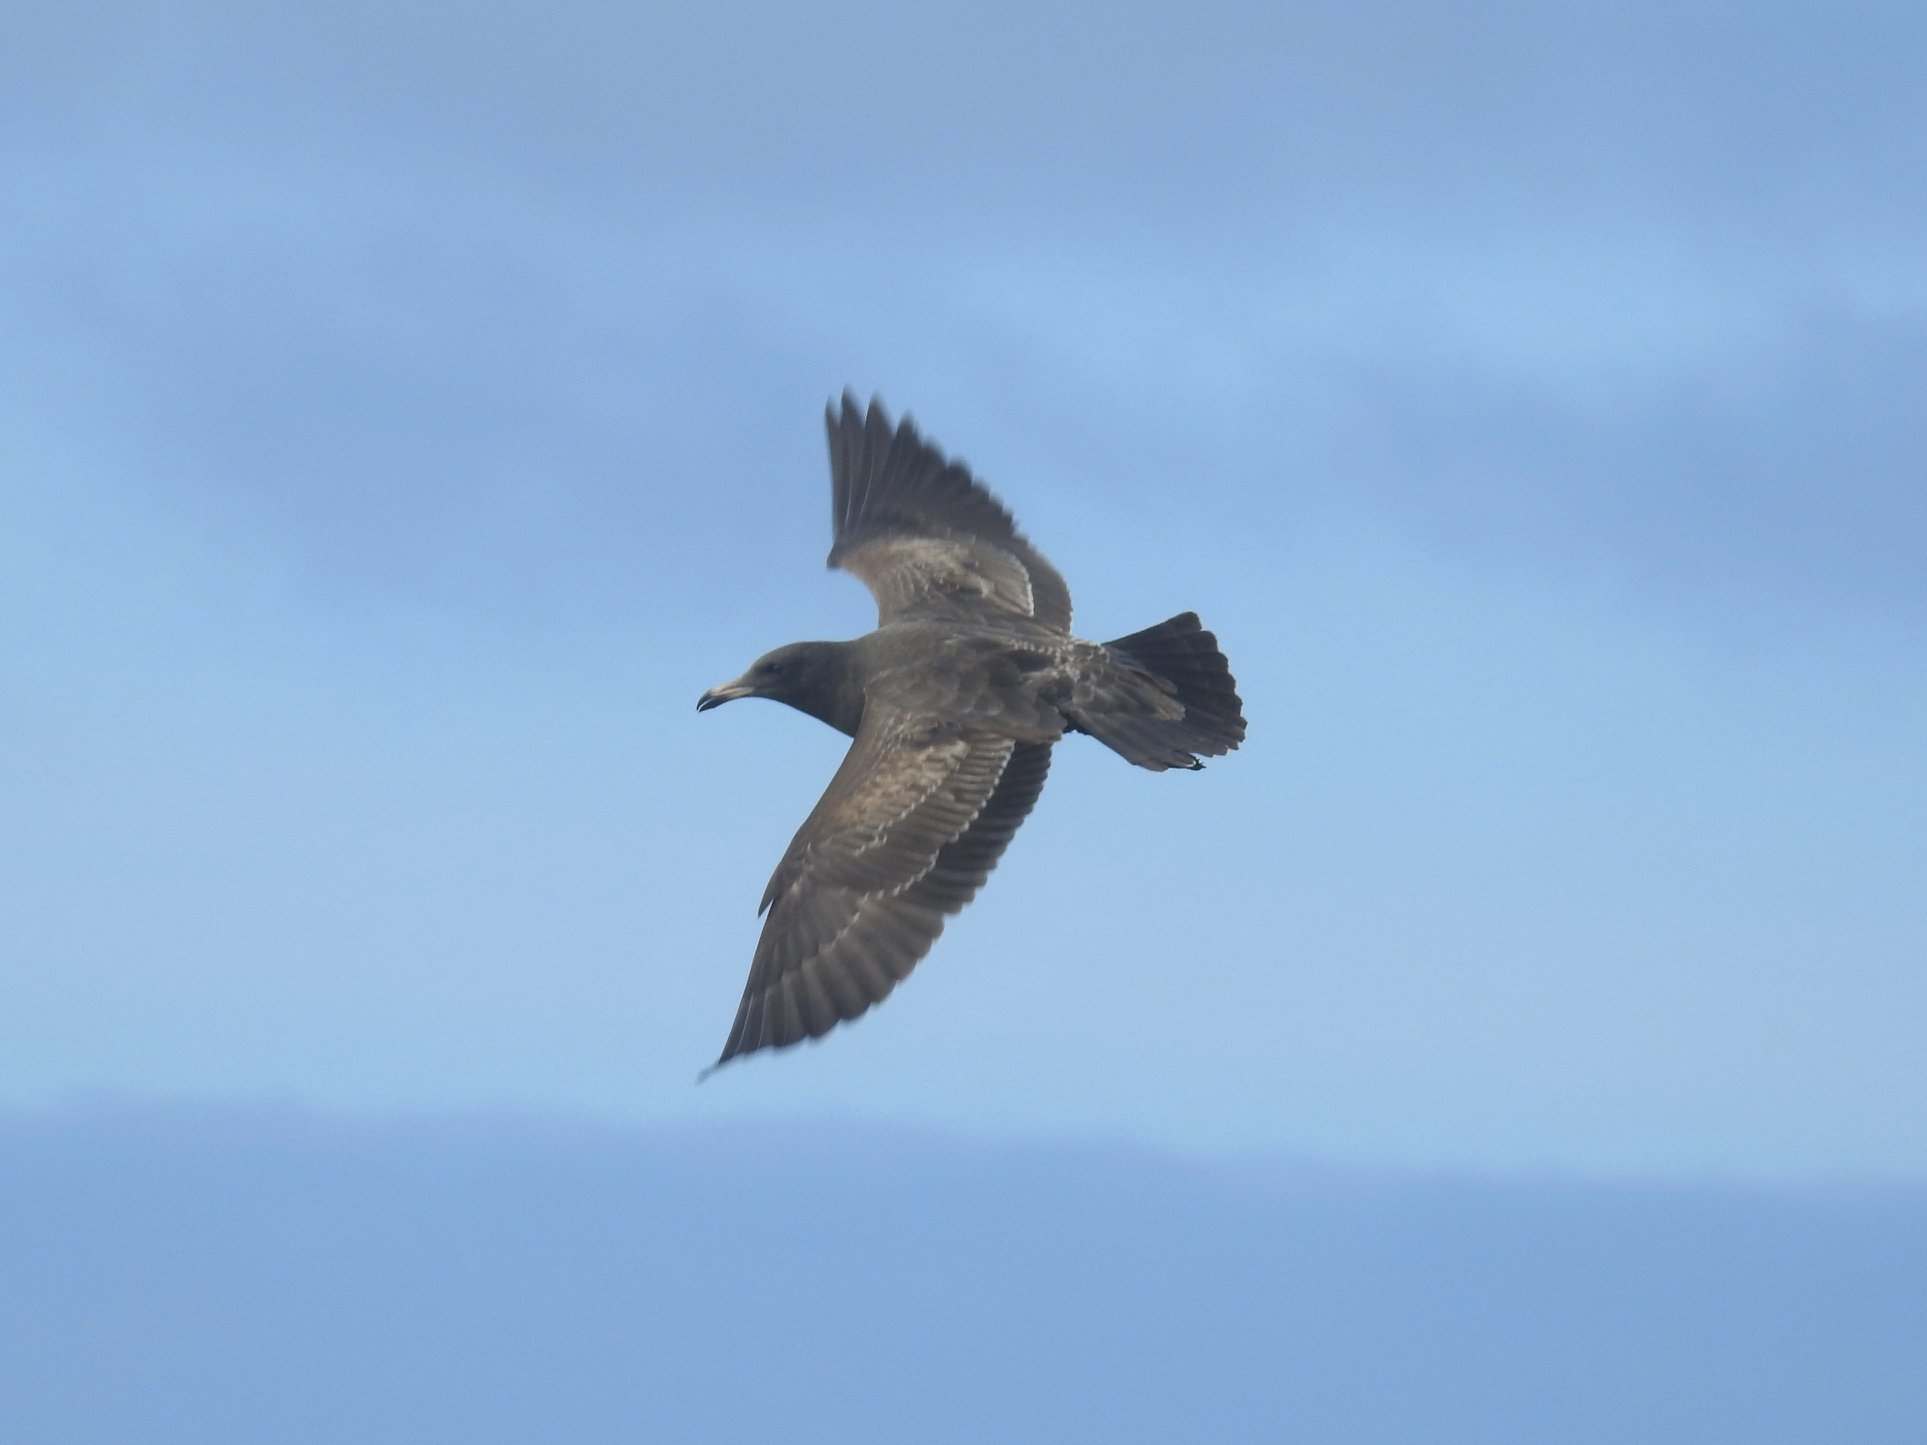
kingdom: Animalia
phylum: Chordata
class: Aves
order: Charadriiformes
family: Laridae
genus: Larus
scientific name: Larus heermanni
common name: Heermann's gull
